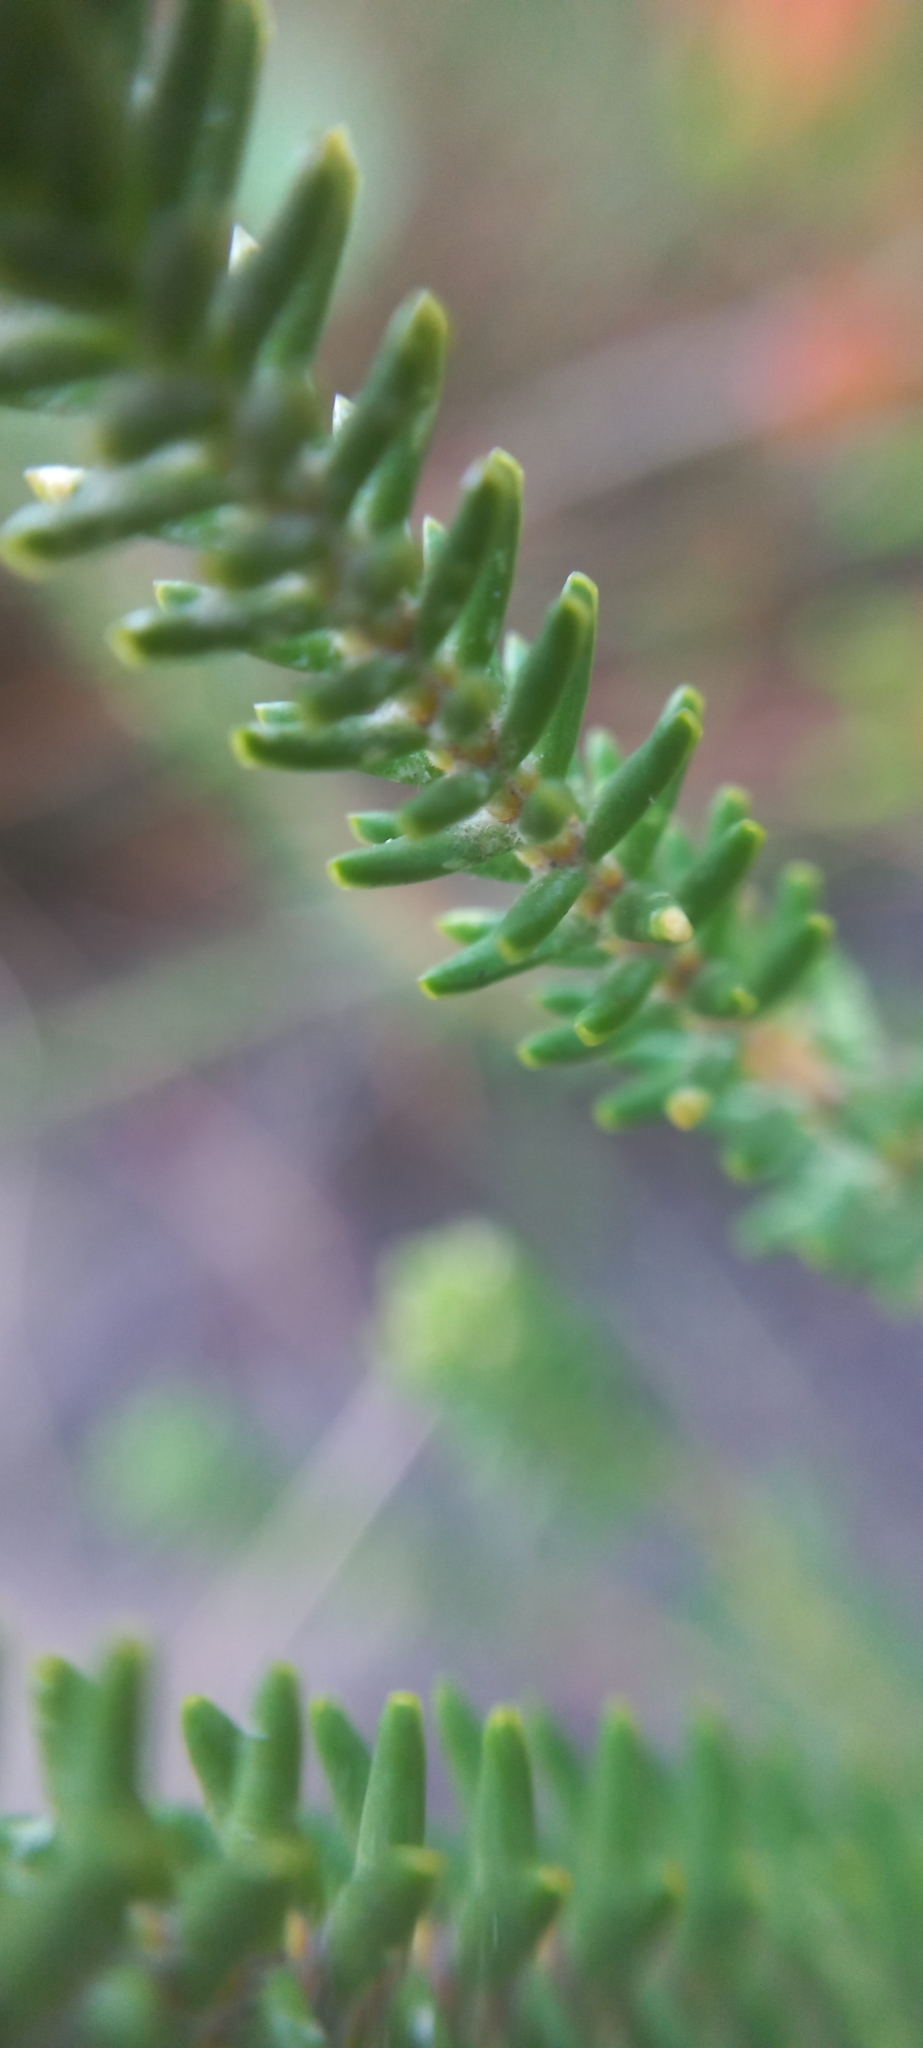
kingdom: Plantae
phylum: Tracheophyta
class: Magnoliopsida
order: Lamiales
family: Stilbaceae
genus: Stilbe
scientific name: Stilbe ericoides
